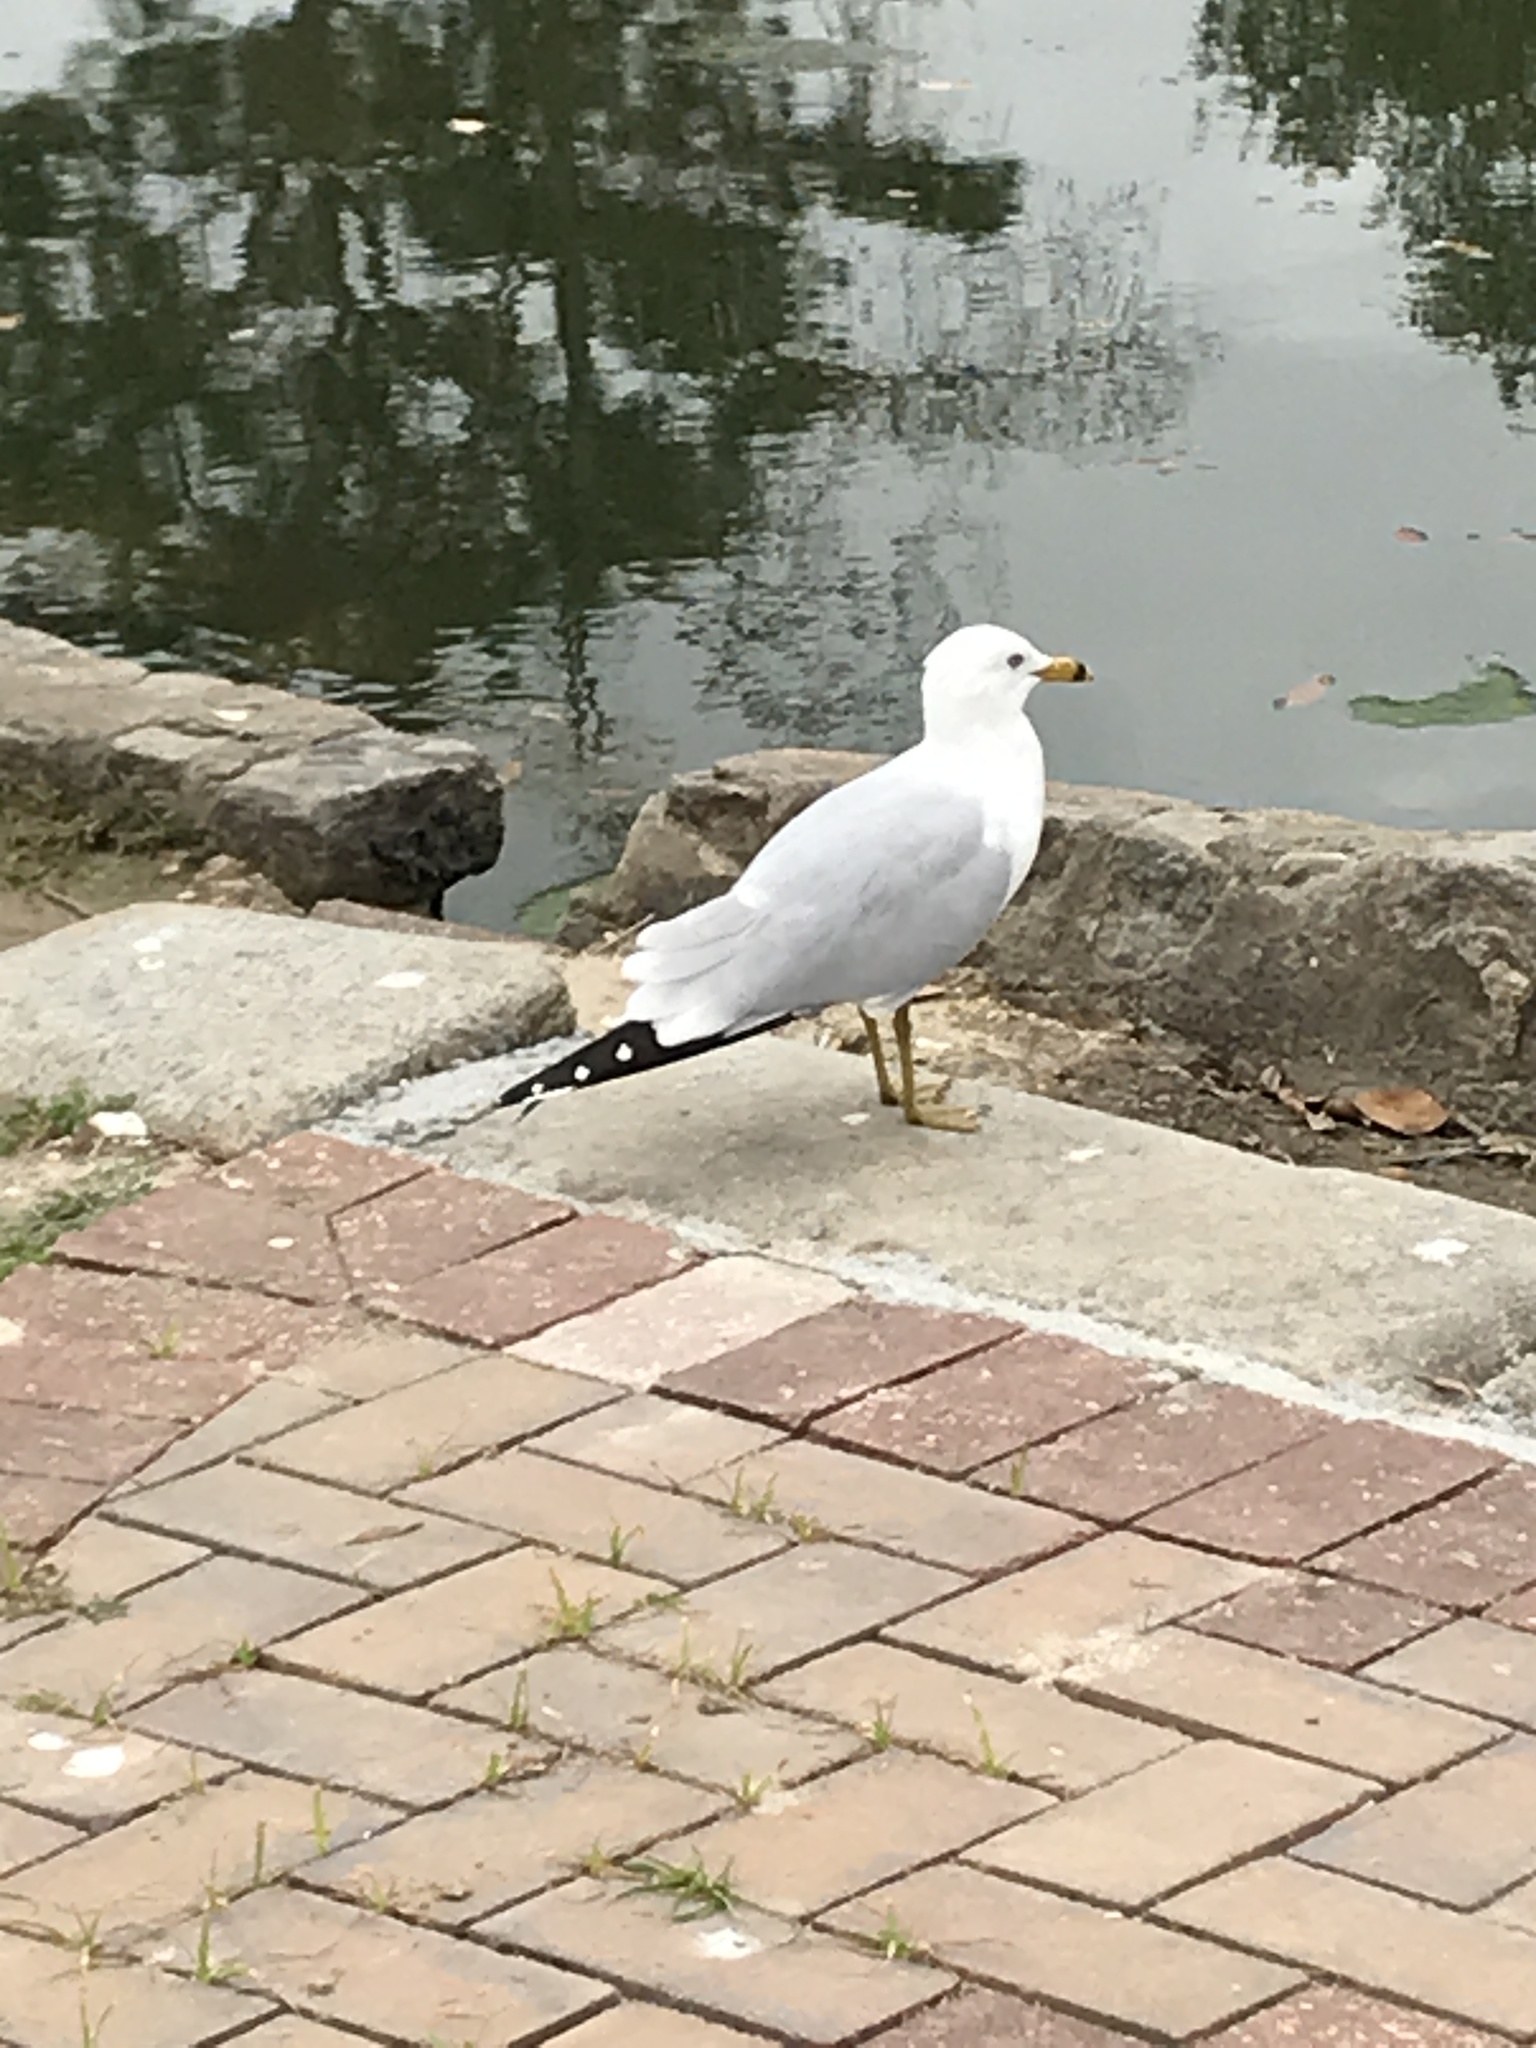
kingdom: Animalia
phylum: Chordata
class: Aves
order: Charadriiformes
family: Laridae
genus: Larus
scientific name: Larus delawarensis
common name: Ring-billed gull
